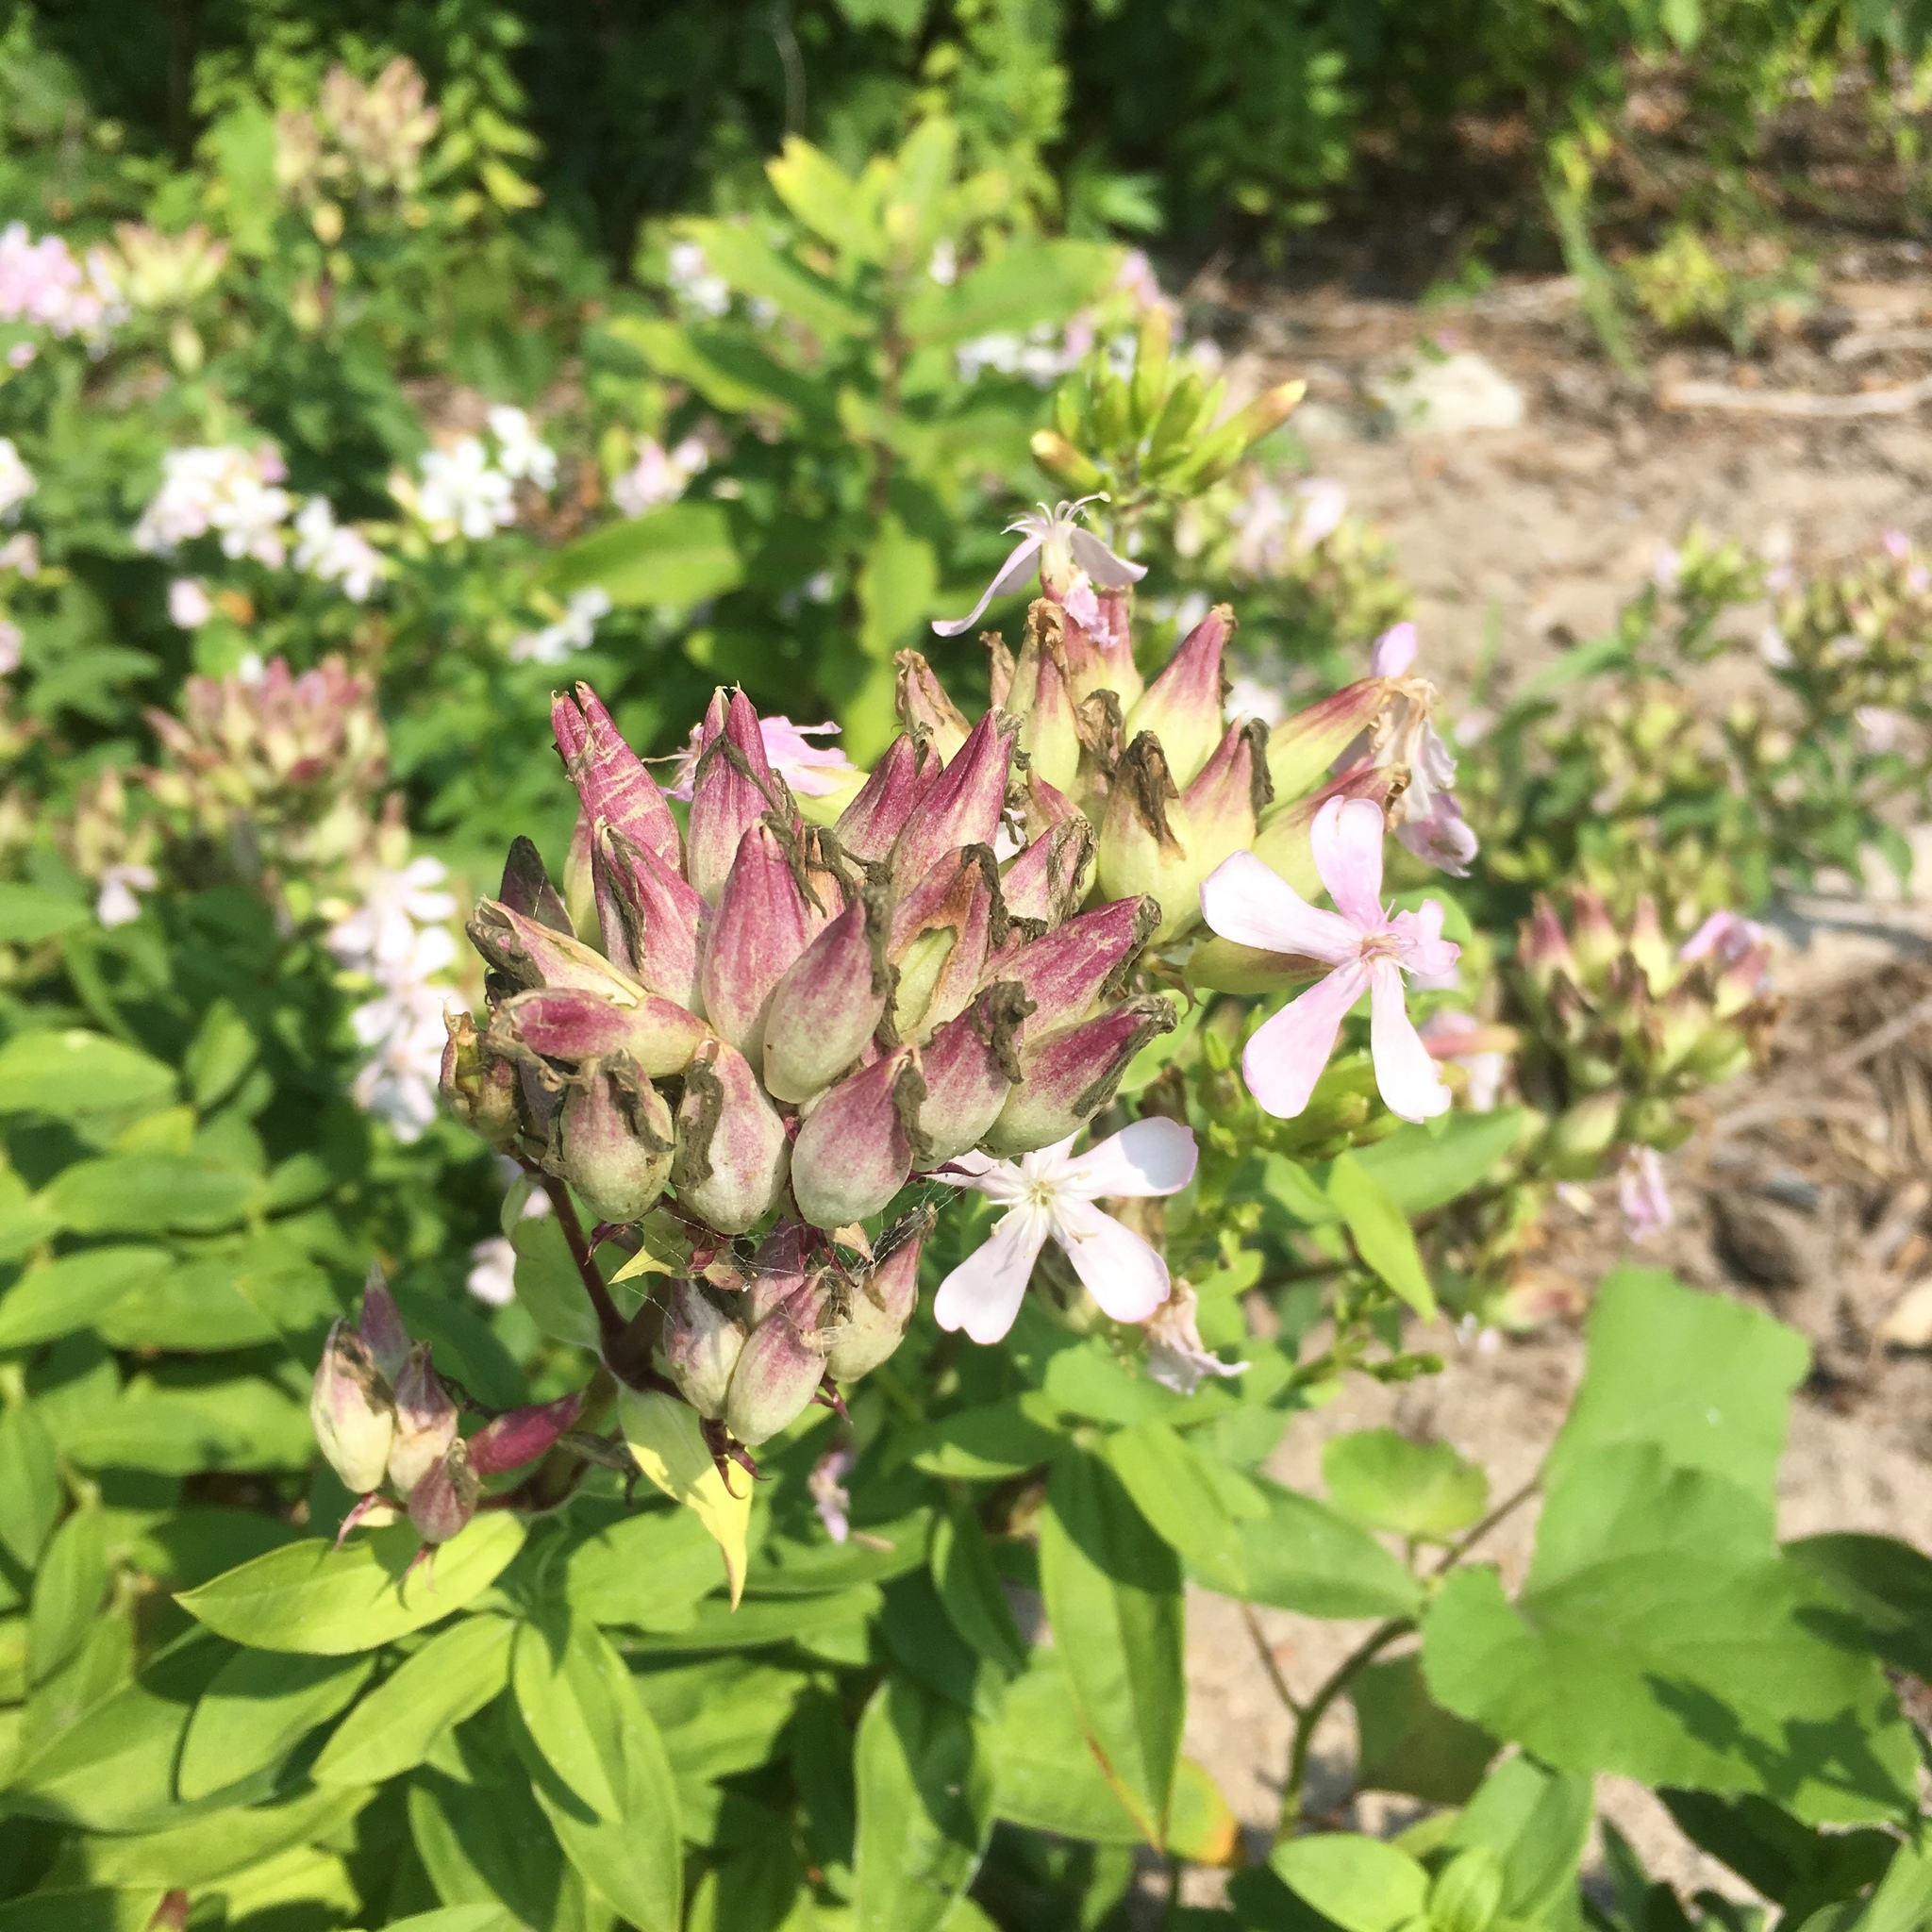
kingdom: Plantae
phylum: Tracheophyta
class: Magnoliopsida
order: Caryophyllales
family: Caryophyllaceae
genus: Saponaria
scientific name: Saponaria officinalis
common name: Soapwort
